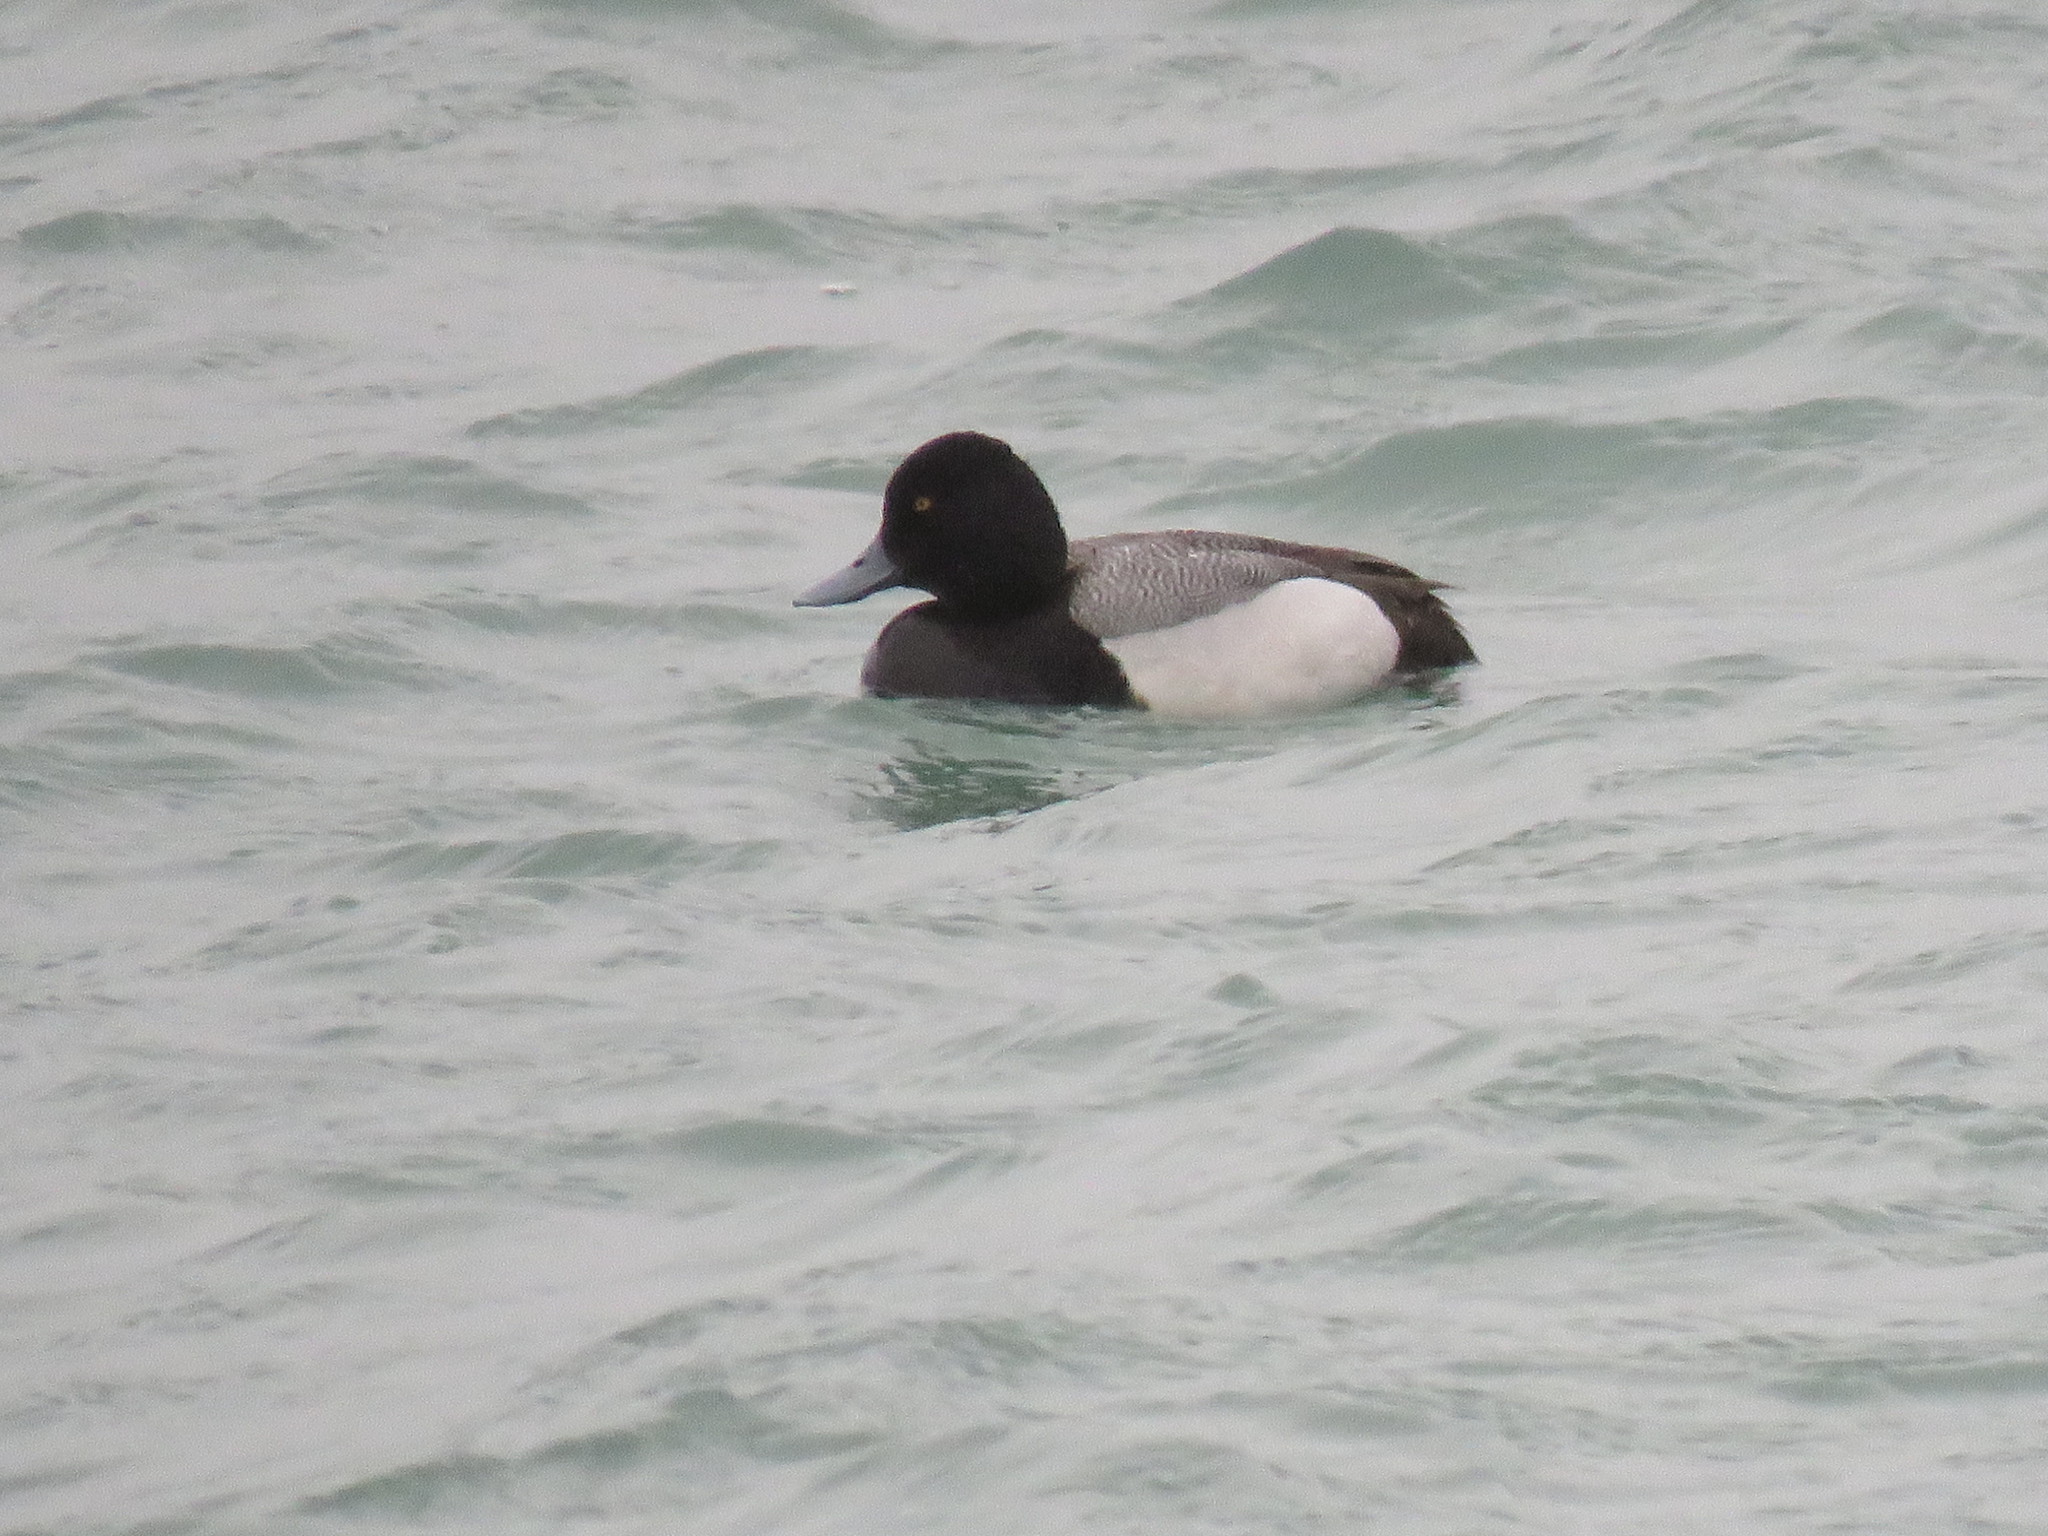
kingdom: Animalia
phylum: Chordata
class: Aves
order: Anseriformes
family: Anatidae
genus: Aythya
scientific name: Aythya marila
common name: Greater scaup
